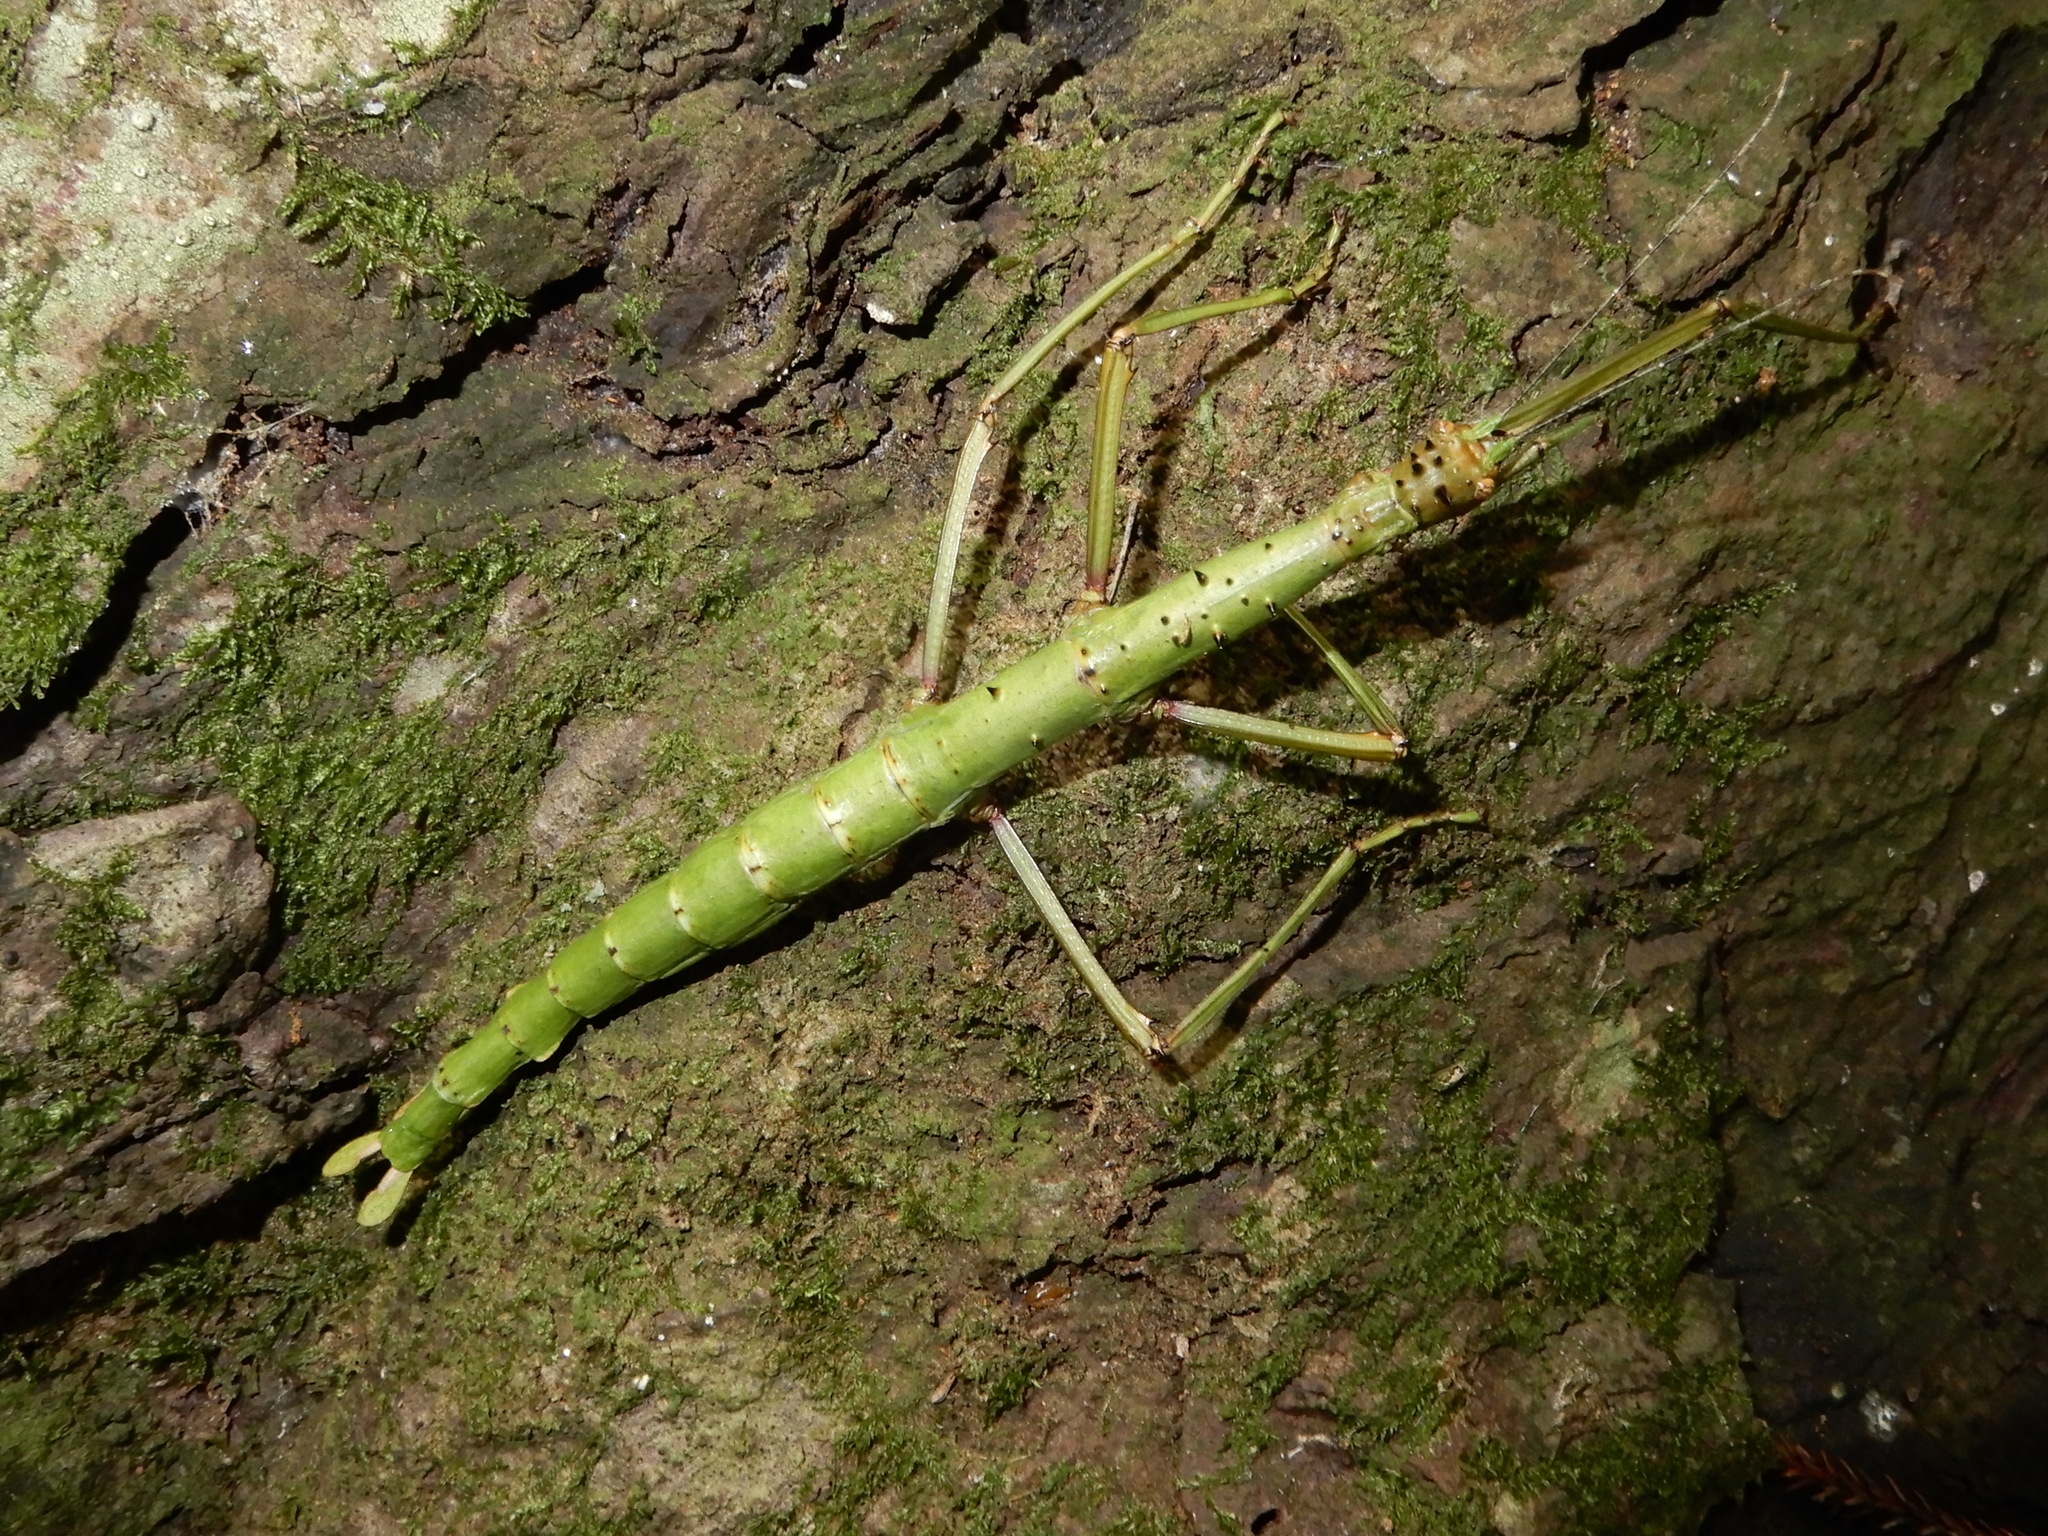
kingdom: Animalia
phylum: Arthropoda
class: Insecta
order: Phasmida
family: Phasmatidae
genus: Acanthoxyla
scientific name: Acanthoxyla prasina
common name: Black-spined stick insect
